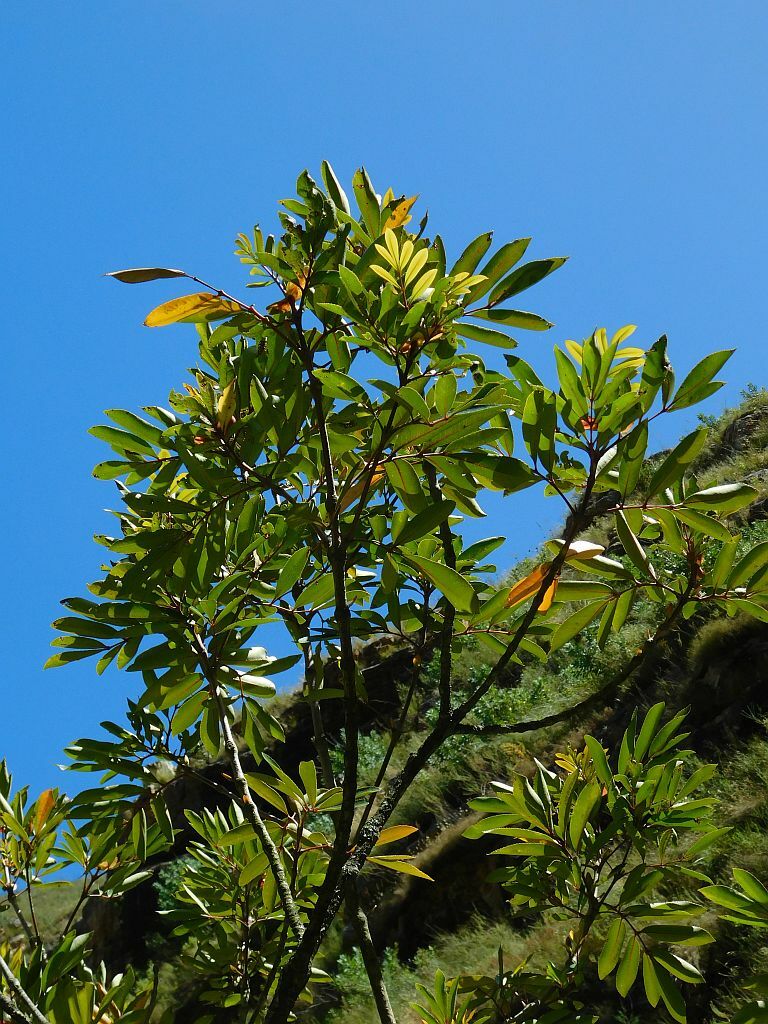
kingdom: Plantae
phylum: Tracheophyta
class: Magnoliopsida
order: Oxalidales
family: Cunoniaceae
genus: Cunonia
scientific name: Cunonia capensis
